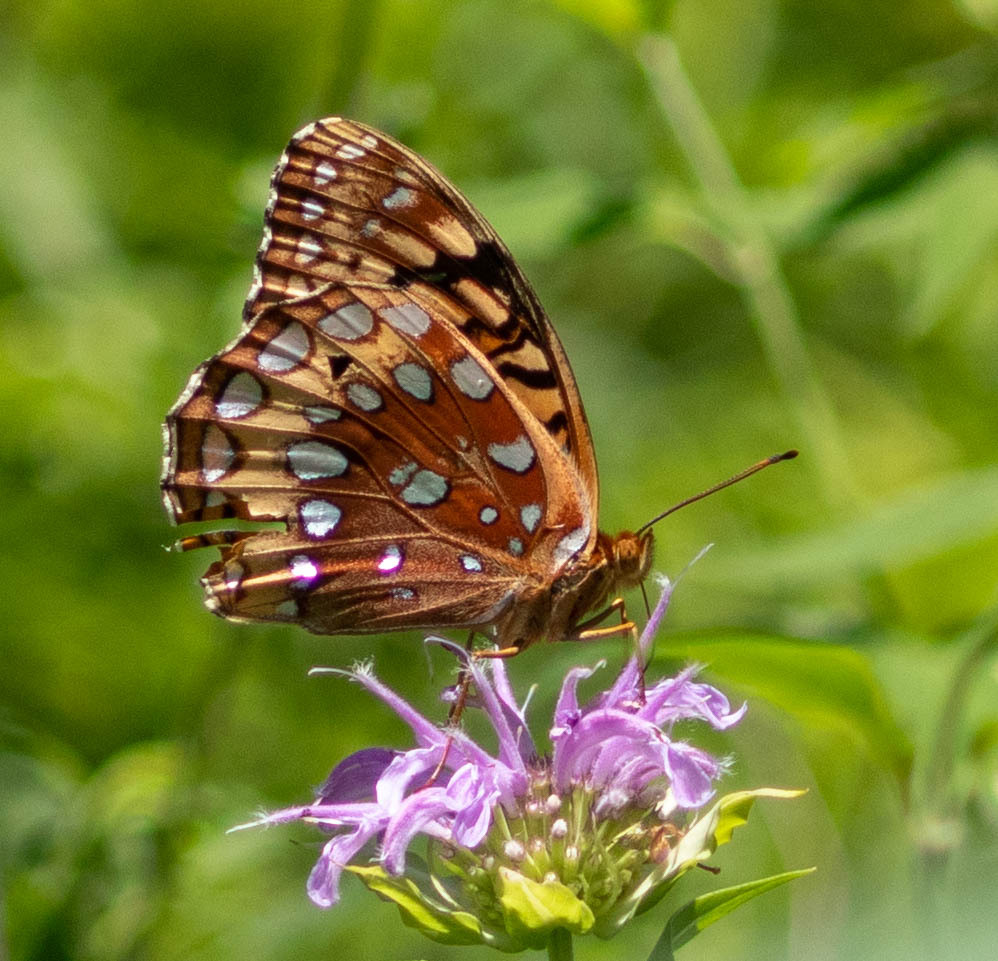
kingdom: Animalia
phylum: Arthropoda
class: Insecta
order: Lepidoptera
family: Nymphalidae
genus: Speyeria
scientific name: Speyeria cybele
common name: Great spangled fritillary
